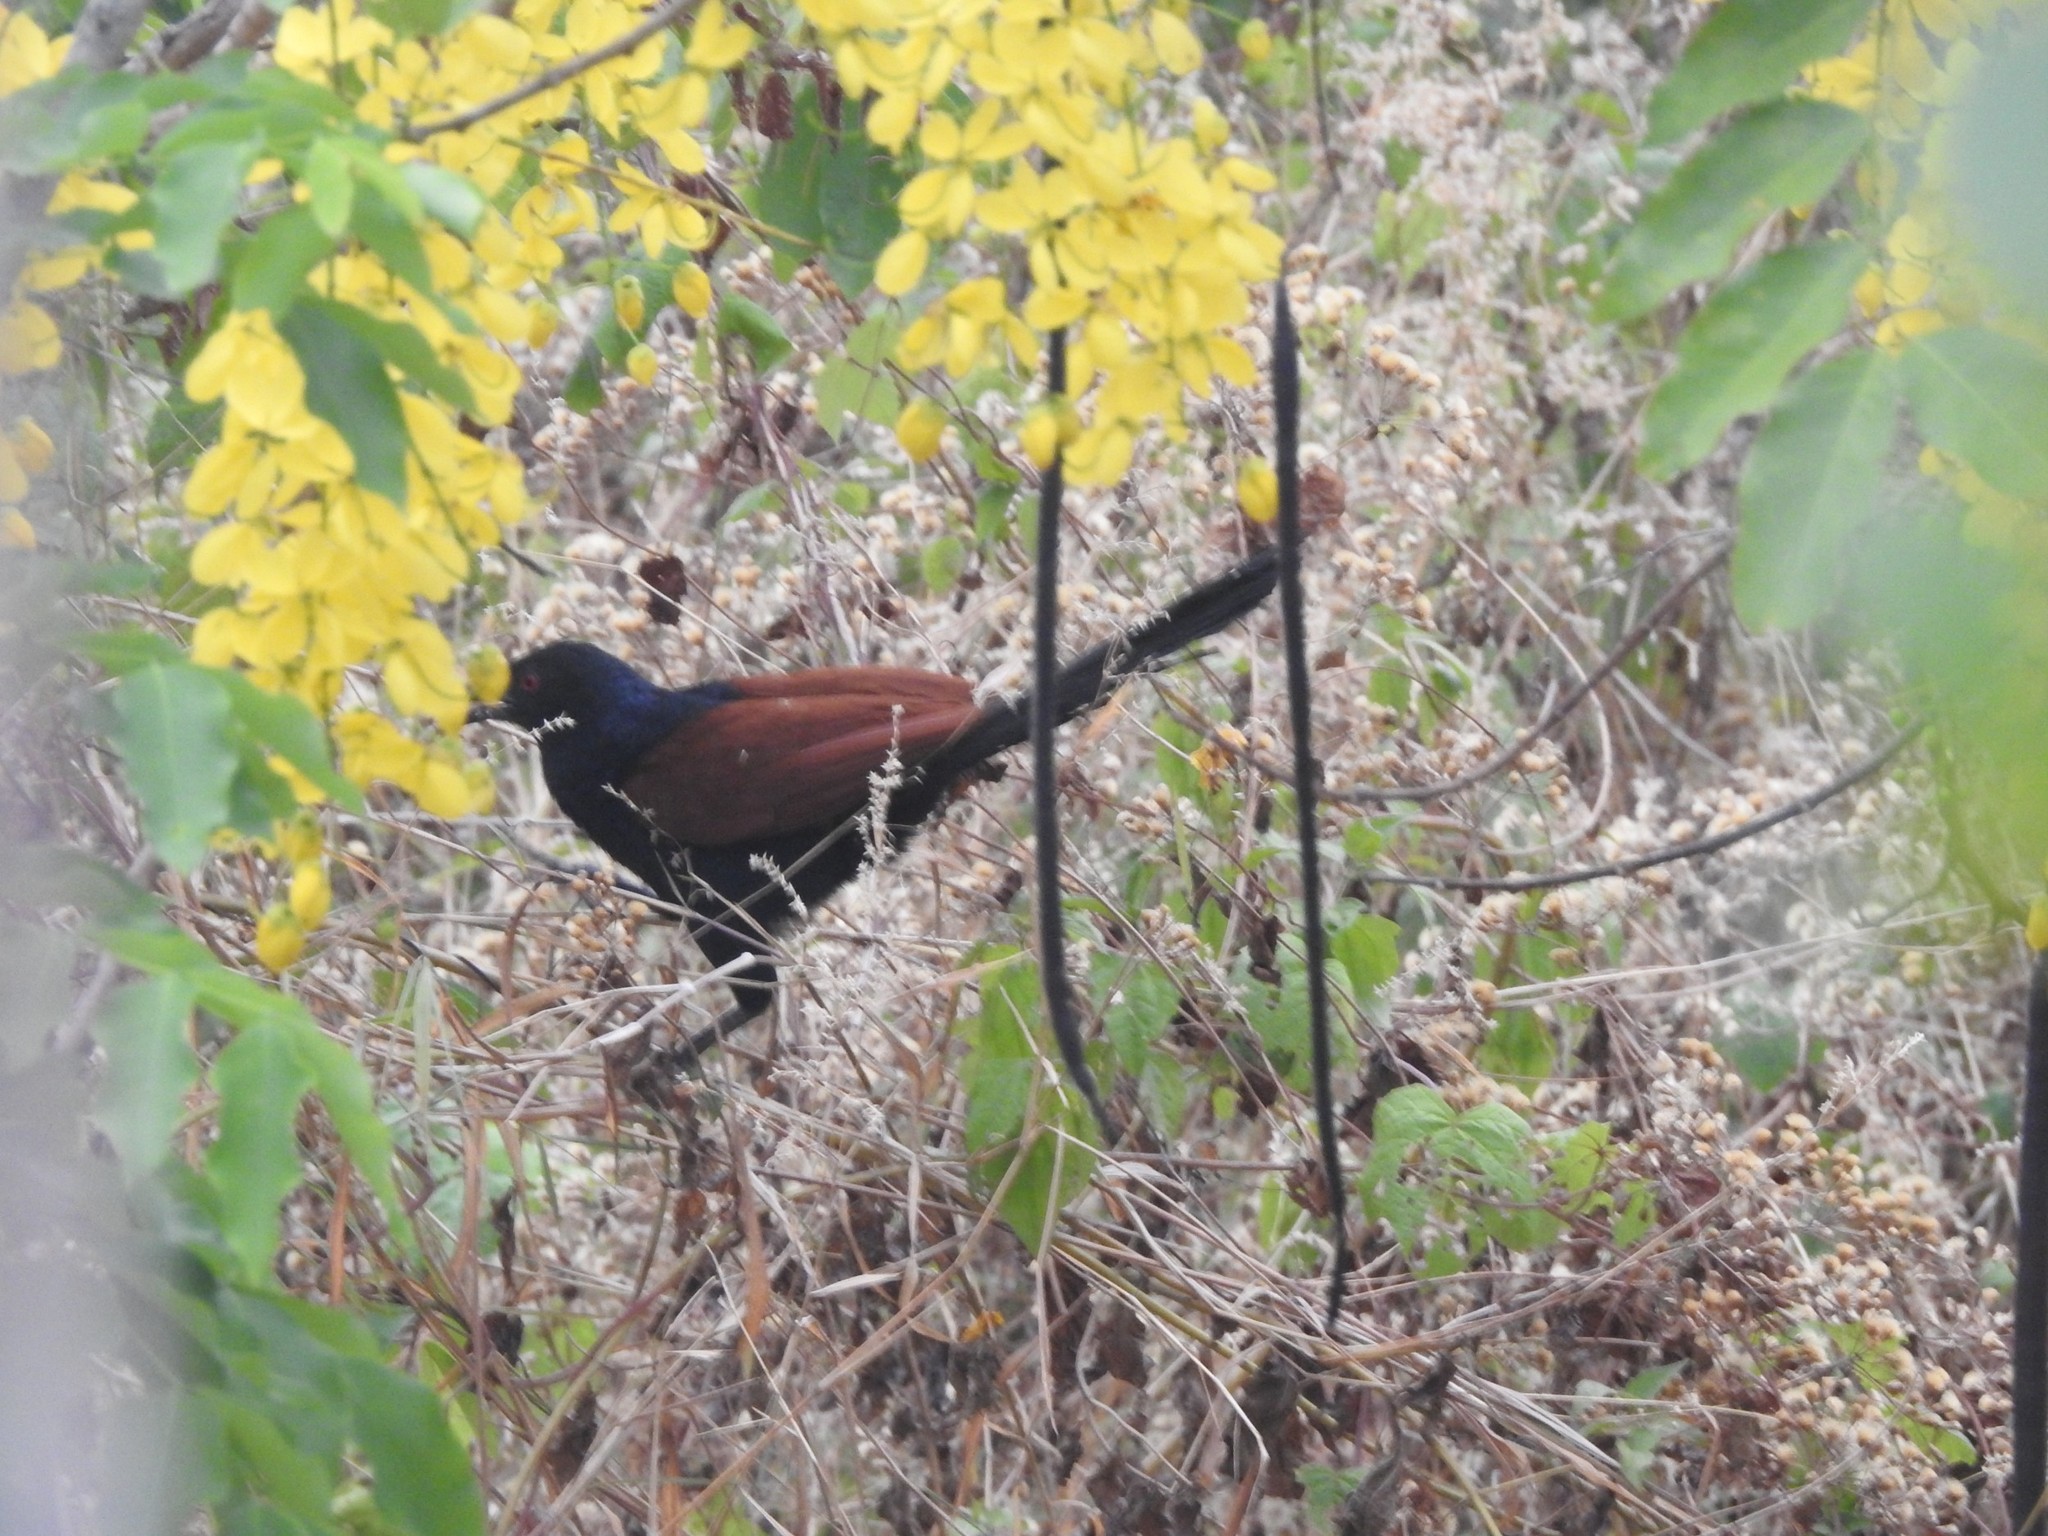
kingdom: Animalia
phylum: Chordata
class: Aves
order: Cuculiformes
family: Cuculidae
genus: Centropus
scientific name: Centropus sinensis
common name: Greater coucal
